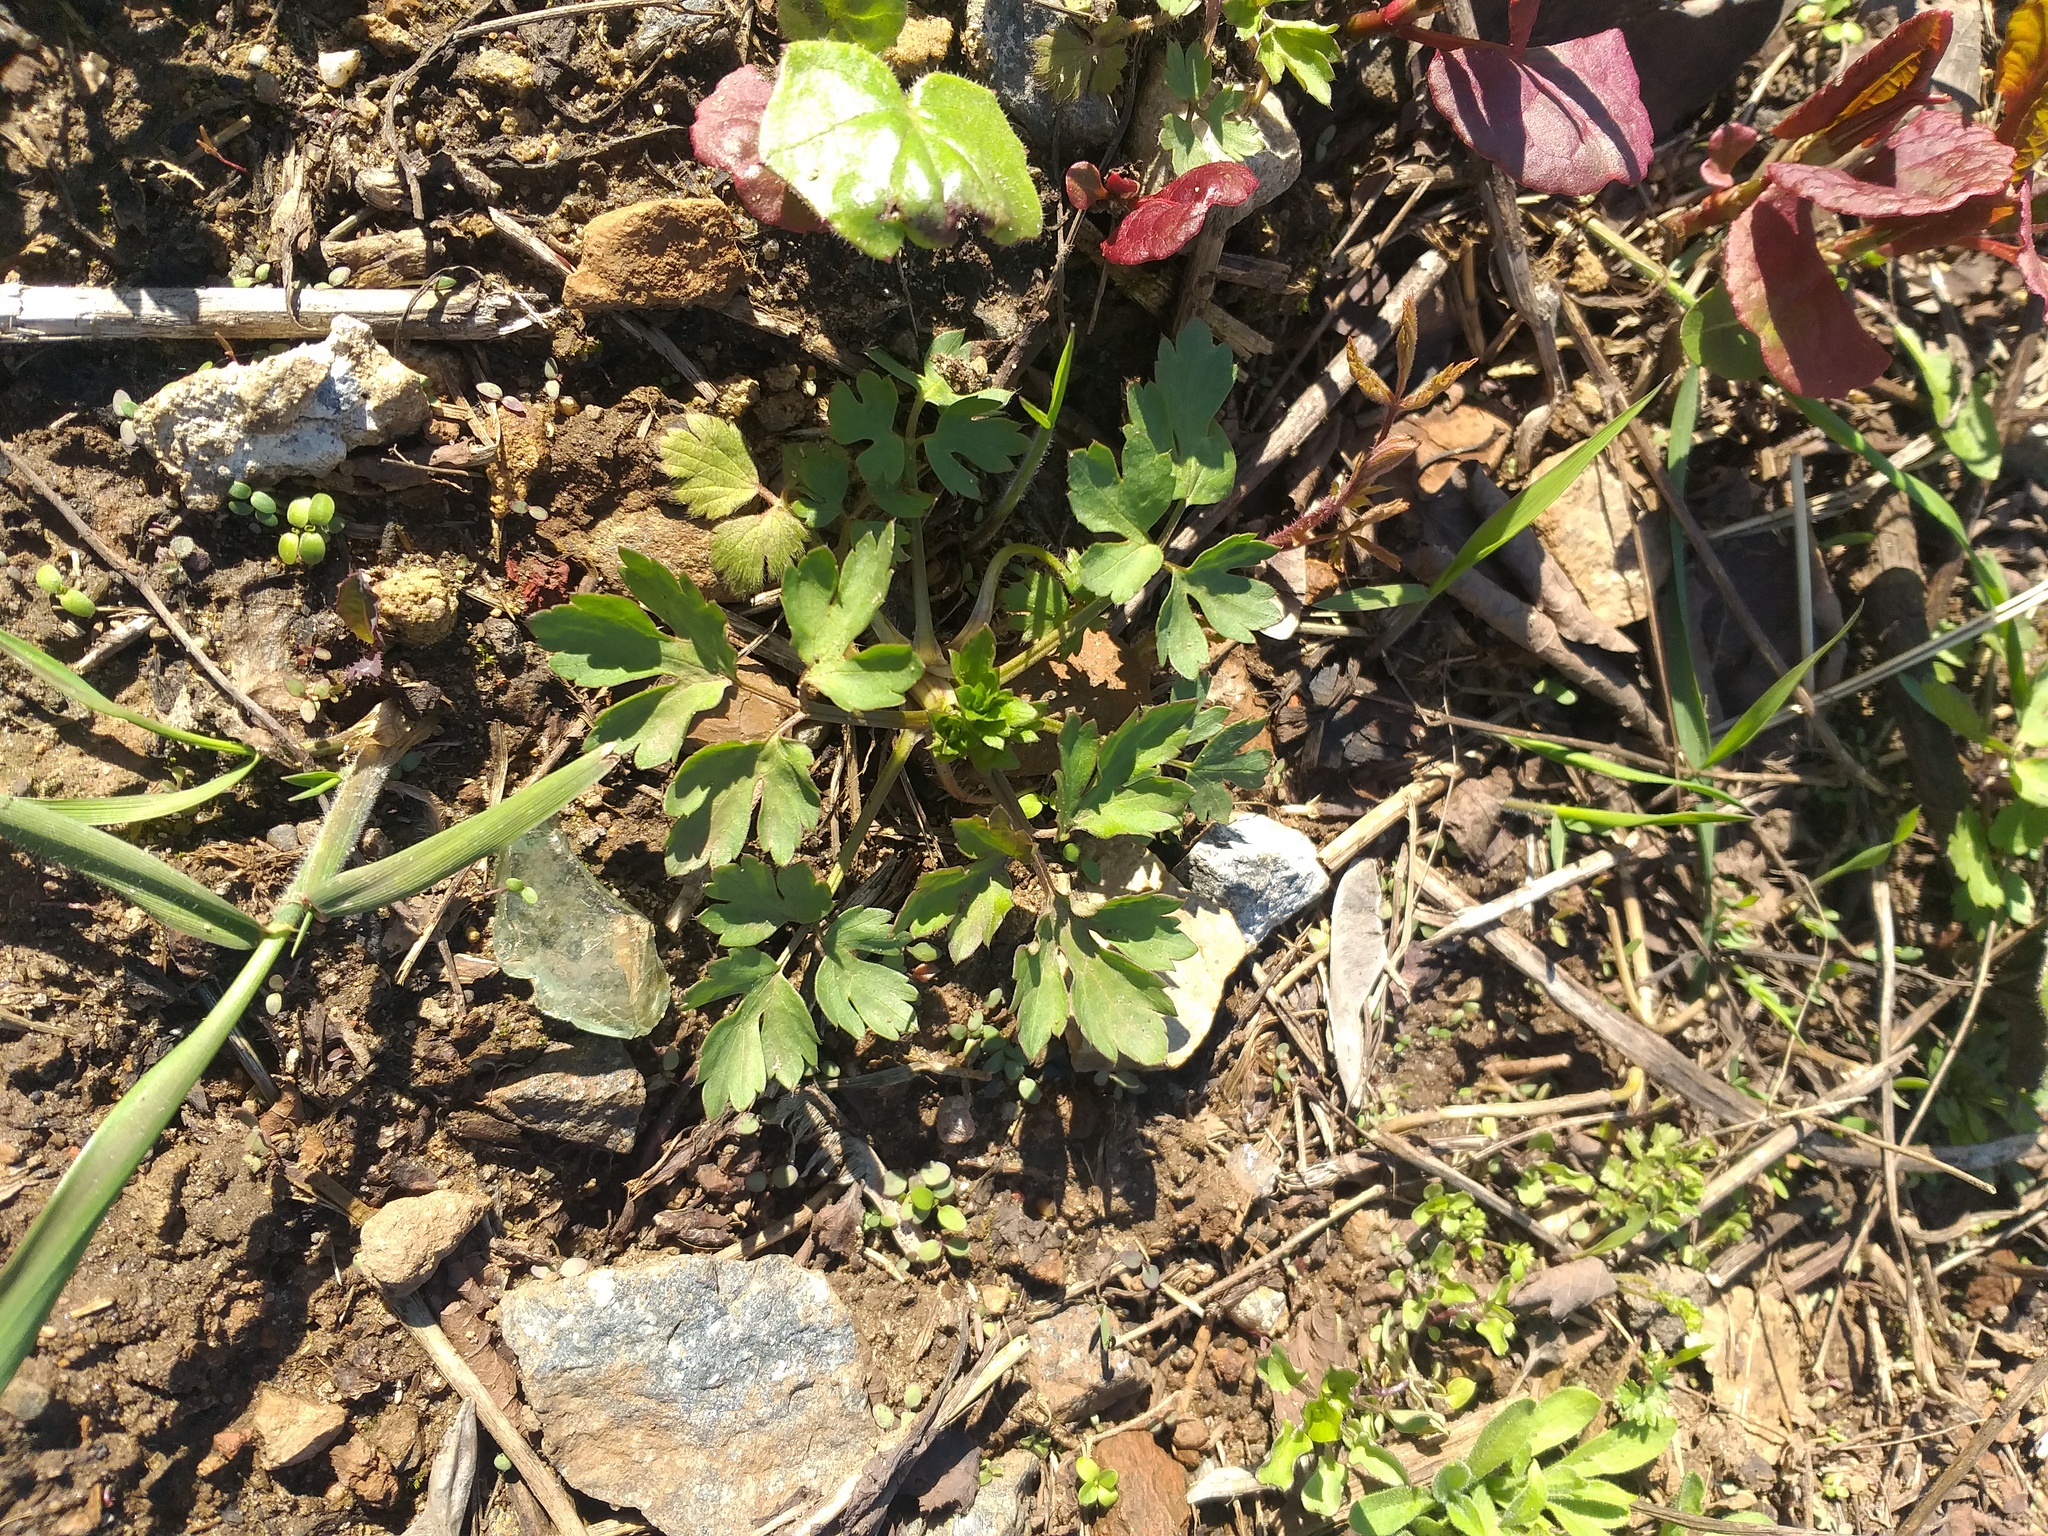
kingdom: Plantae
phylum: Tracheophyta
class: Magnoliopsida
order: Ranunculales
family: Ranunculaceae
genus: Ranunculus
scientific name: Ranunculus repens
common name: Creeping buttercup
